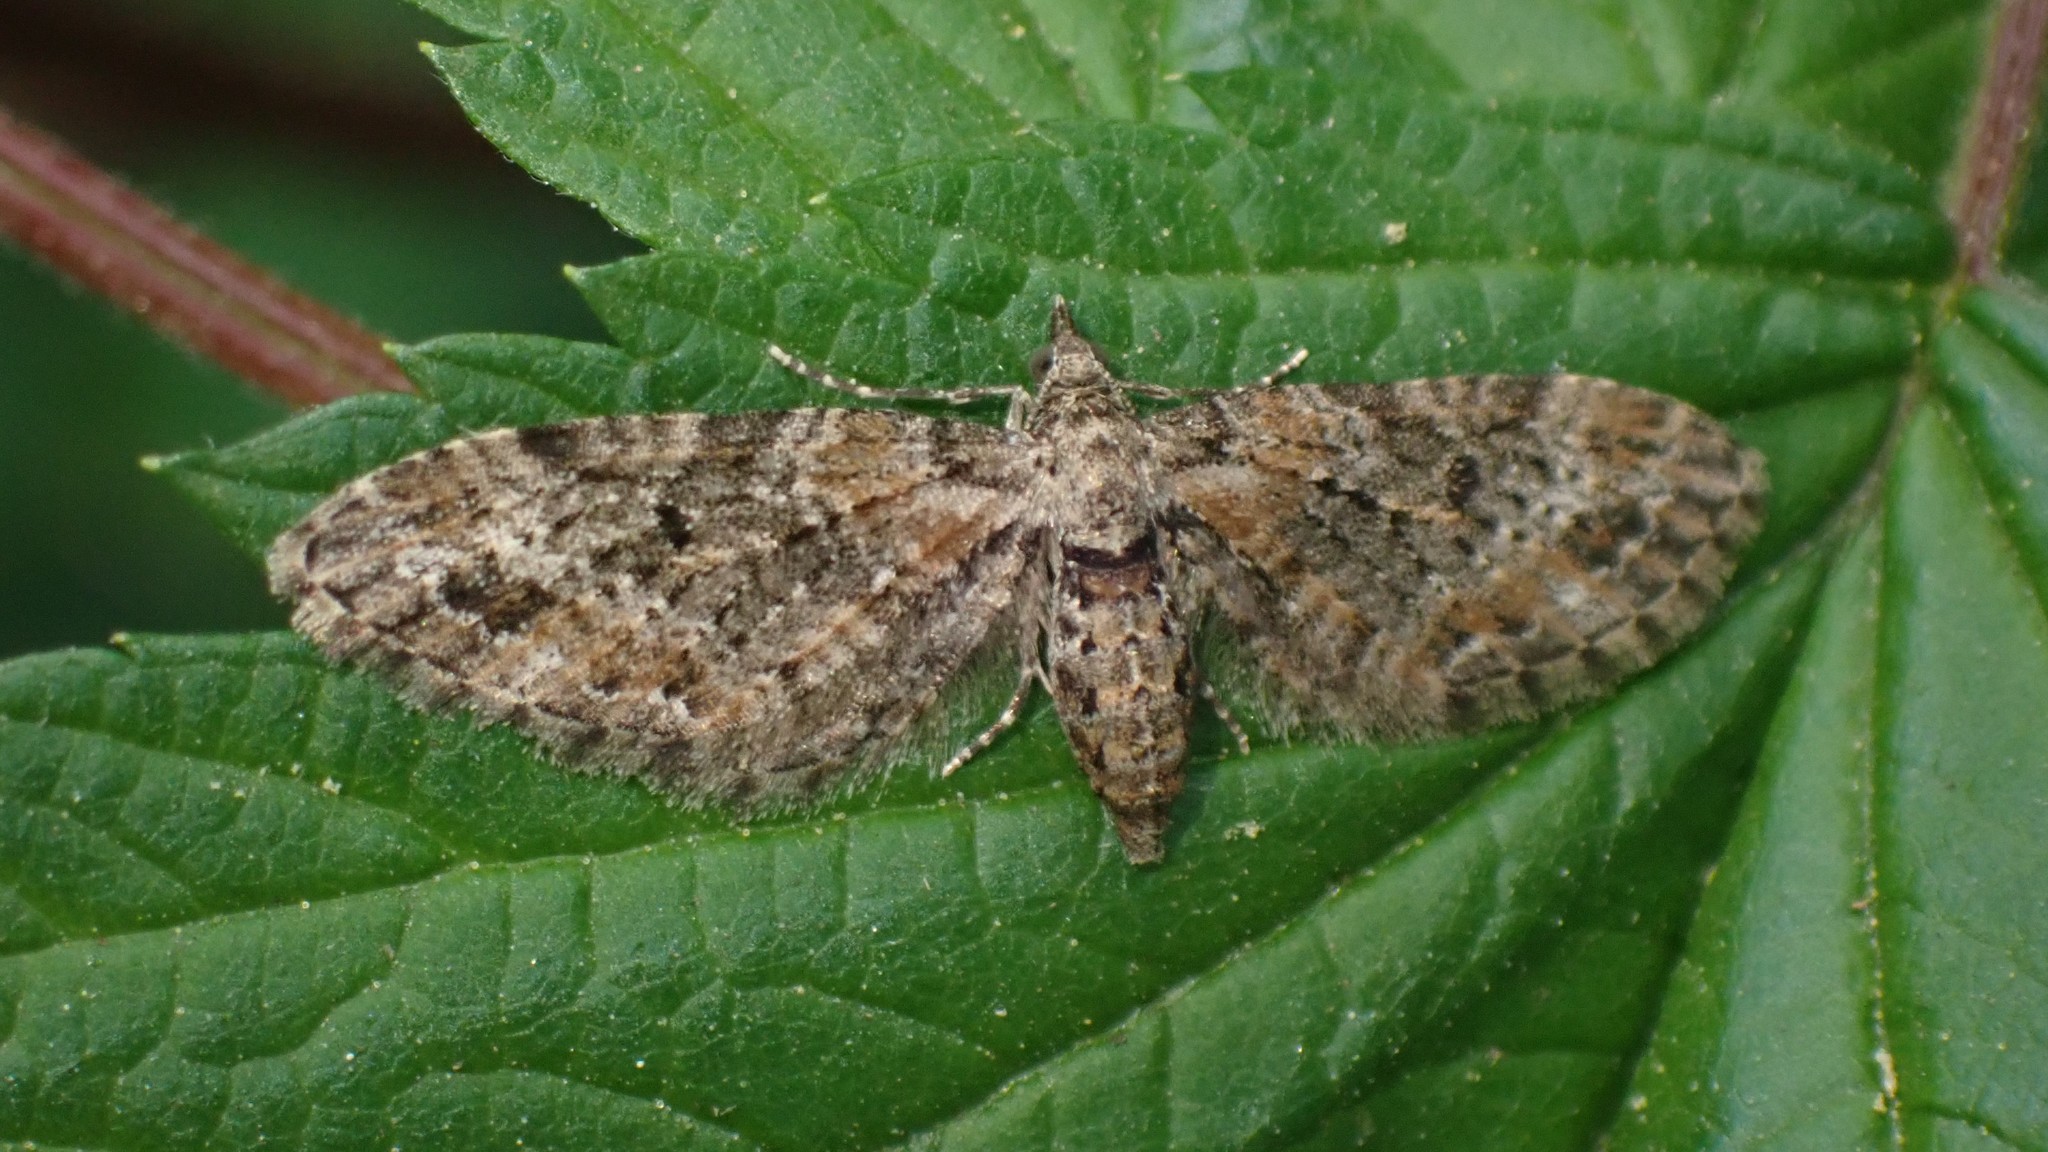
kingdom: Animalia
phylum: Arthropoda
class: Insecta
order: Lepidoptera
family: Geometridae
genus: Eupithecia
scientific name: Eupithecia rotundopuncta
